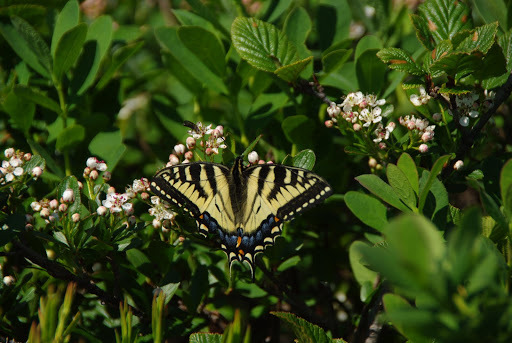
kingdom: Animalia
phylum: Arthropoda
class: Insecta
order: Lepidoptera
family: Papilionidae
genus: Papilio
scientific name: Papilio canadensis
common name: Canadian tiger swallowtail
